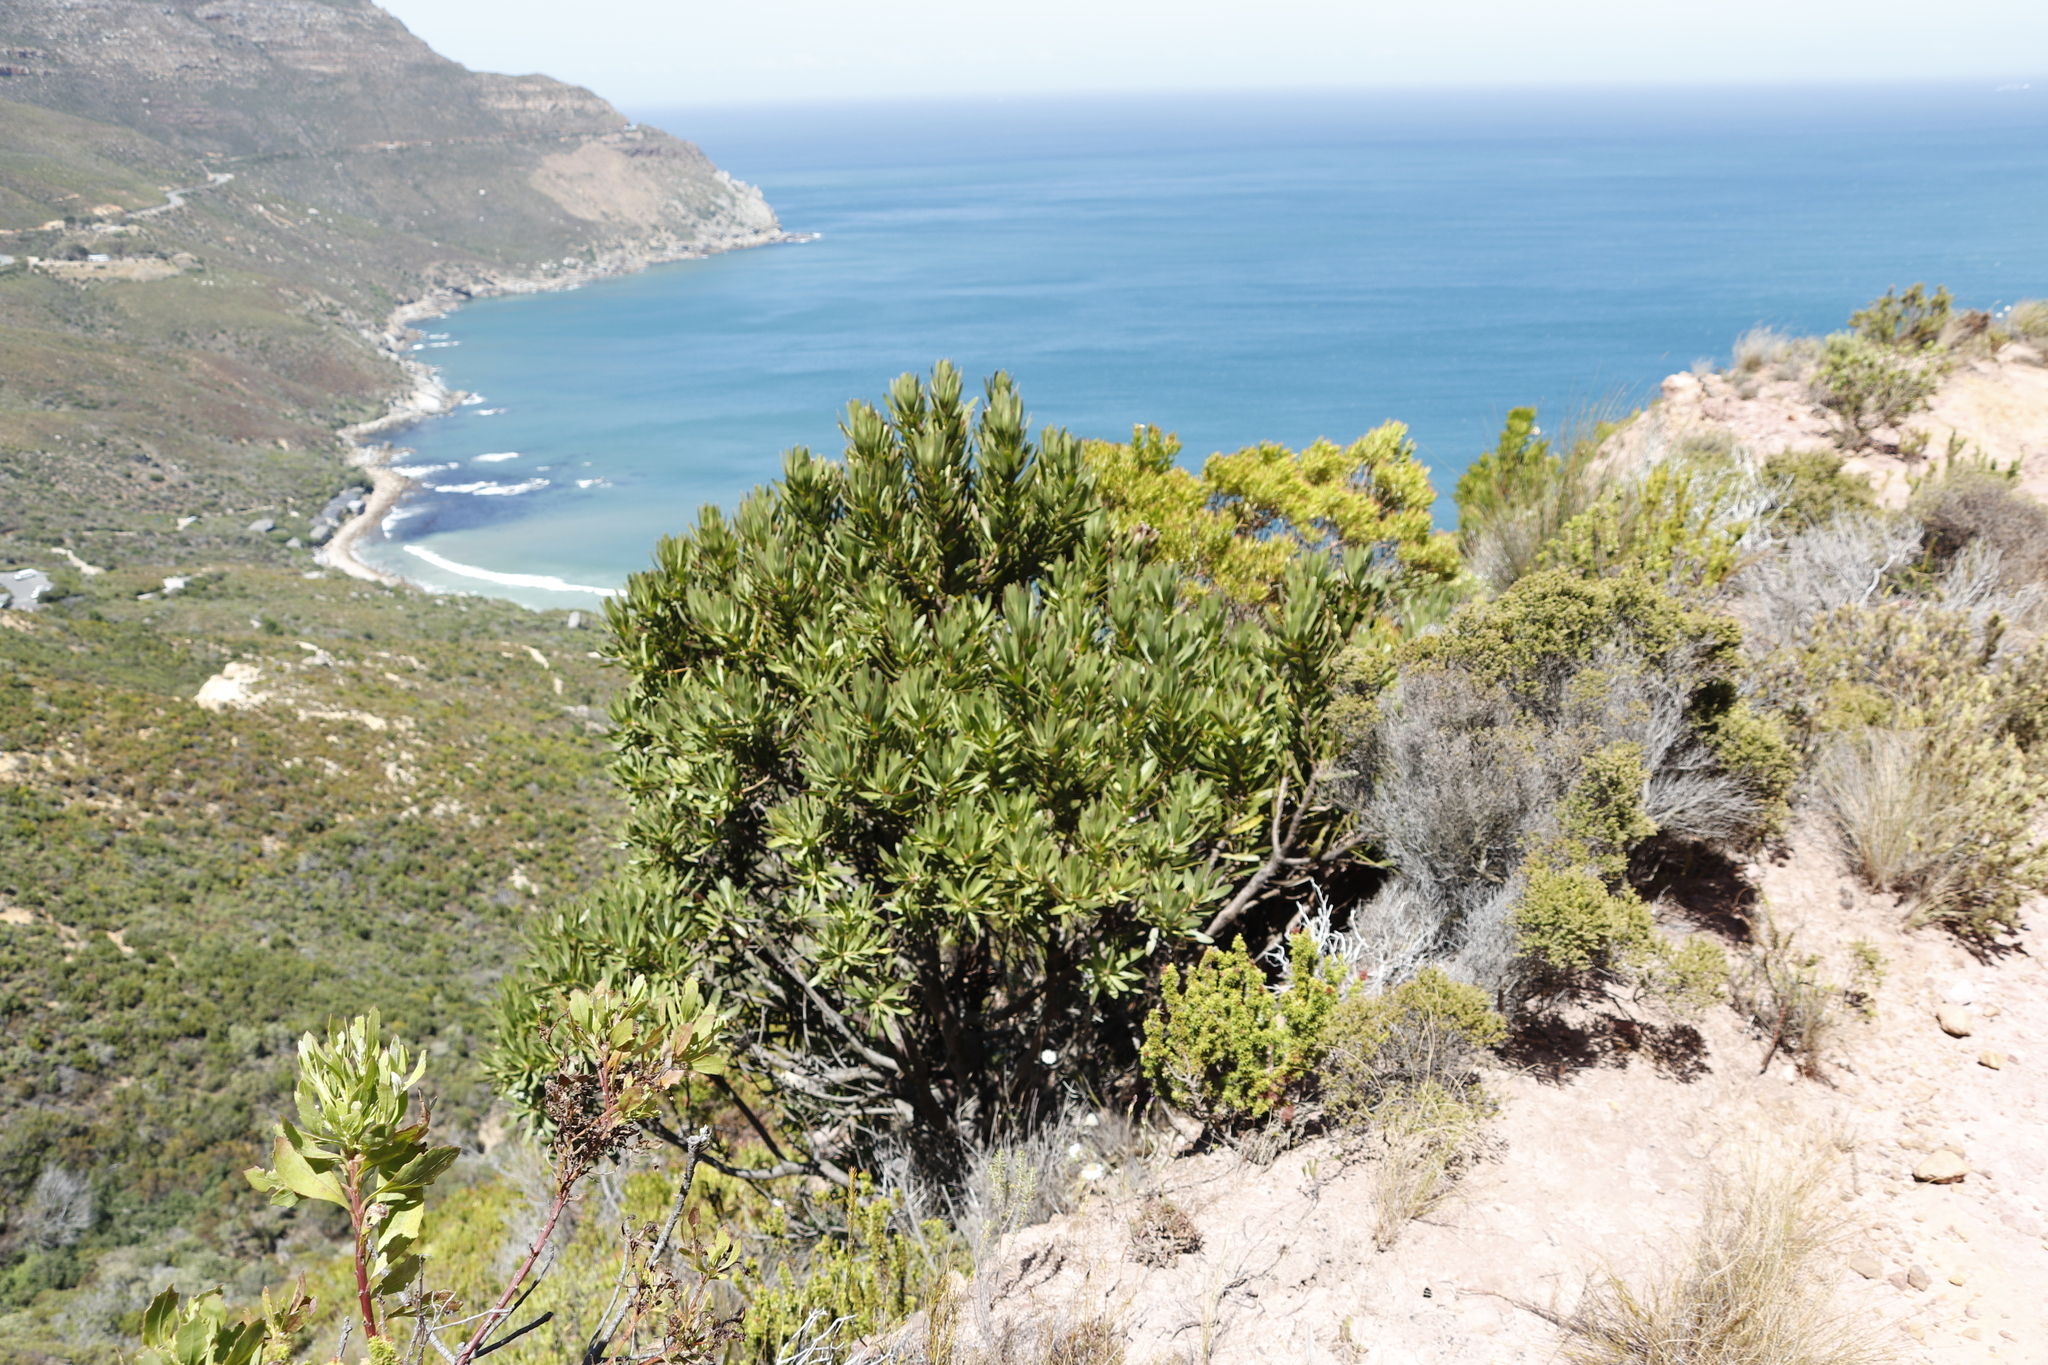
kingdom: Plantae
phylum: Tracheophyta
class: Magnoliopsida
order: Proteales
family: Proteaceae
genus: Protea
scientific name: Protea lepidocarpodendron
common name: Black-bearded protea
